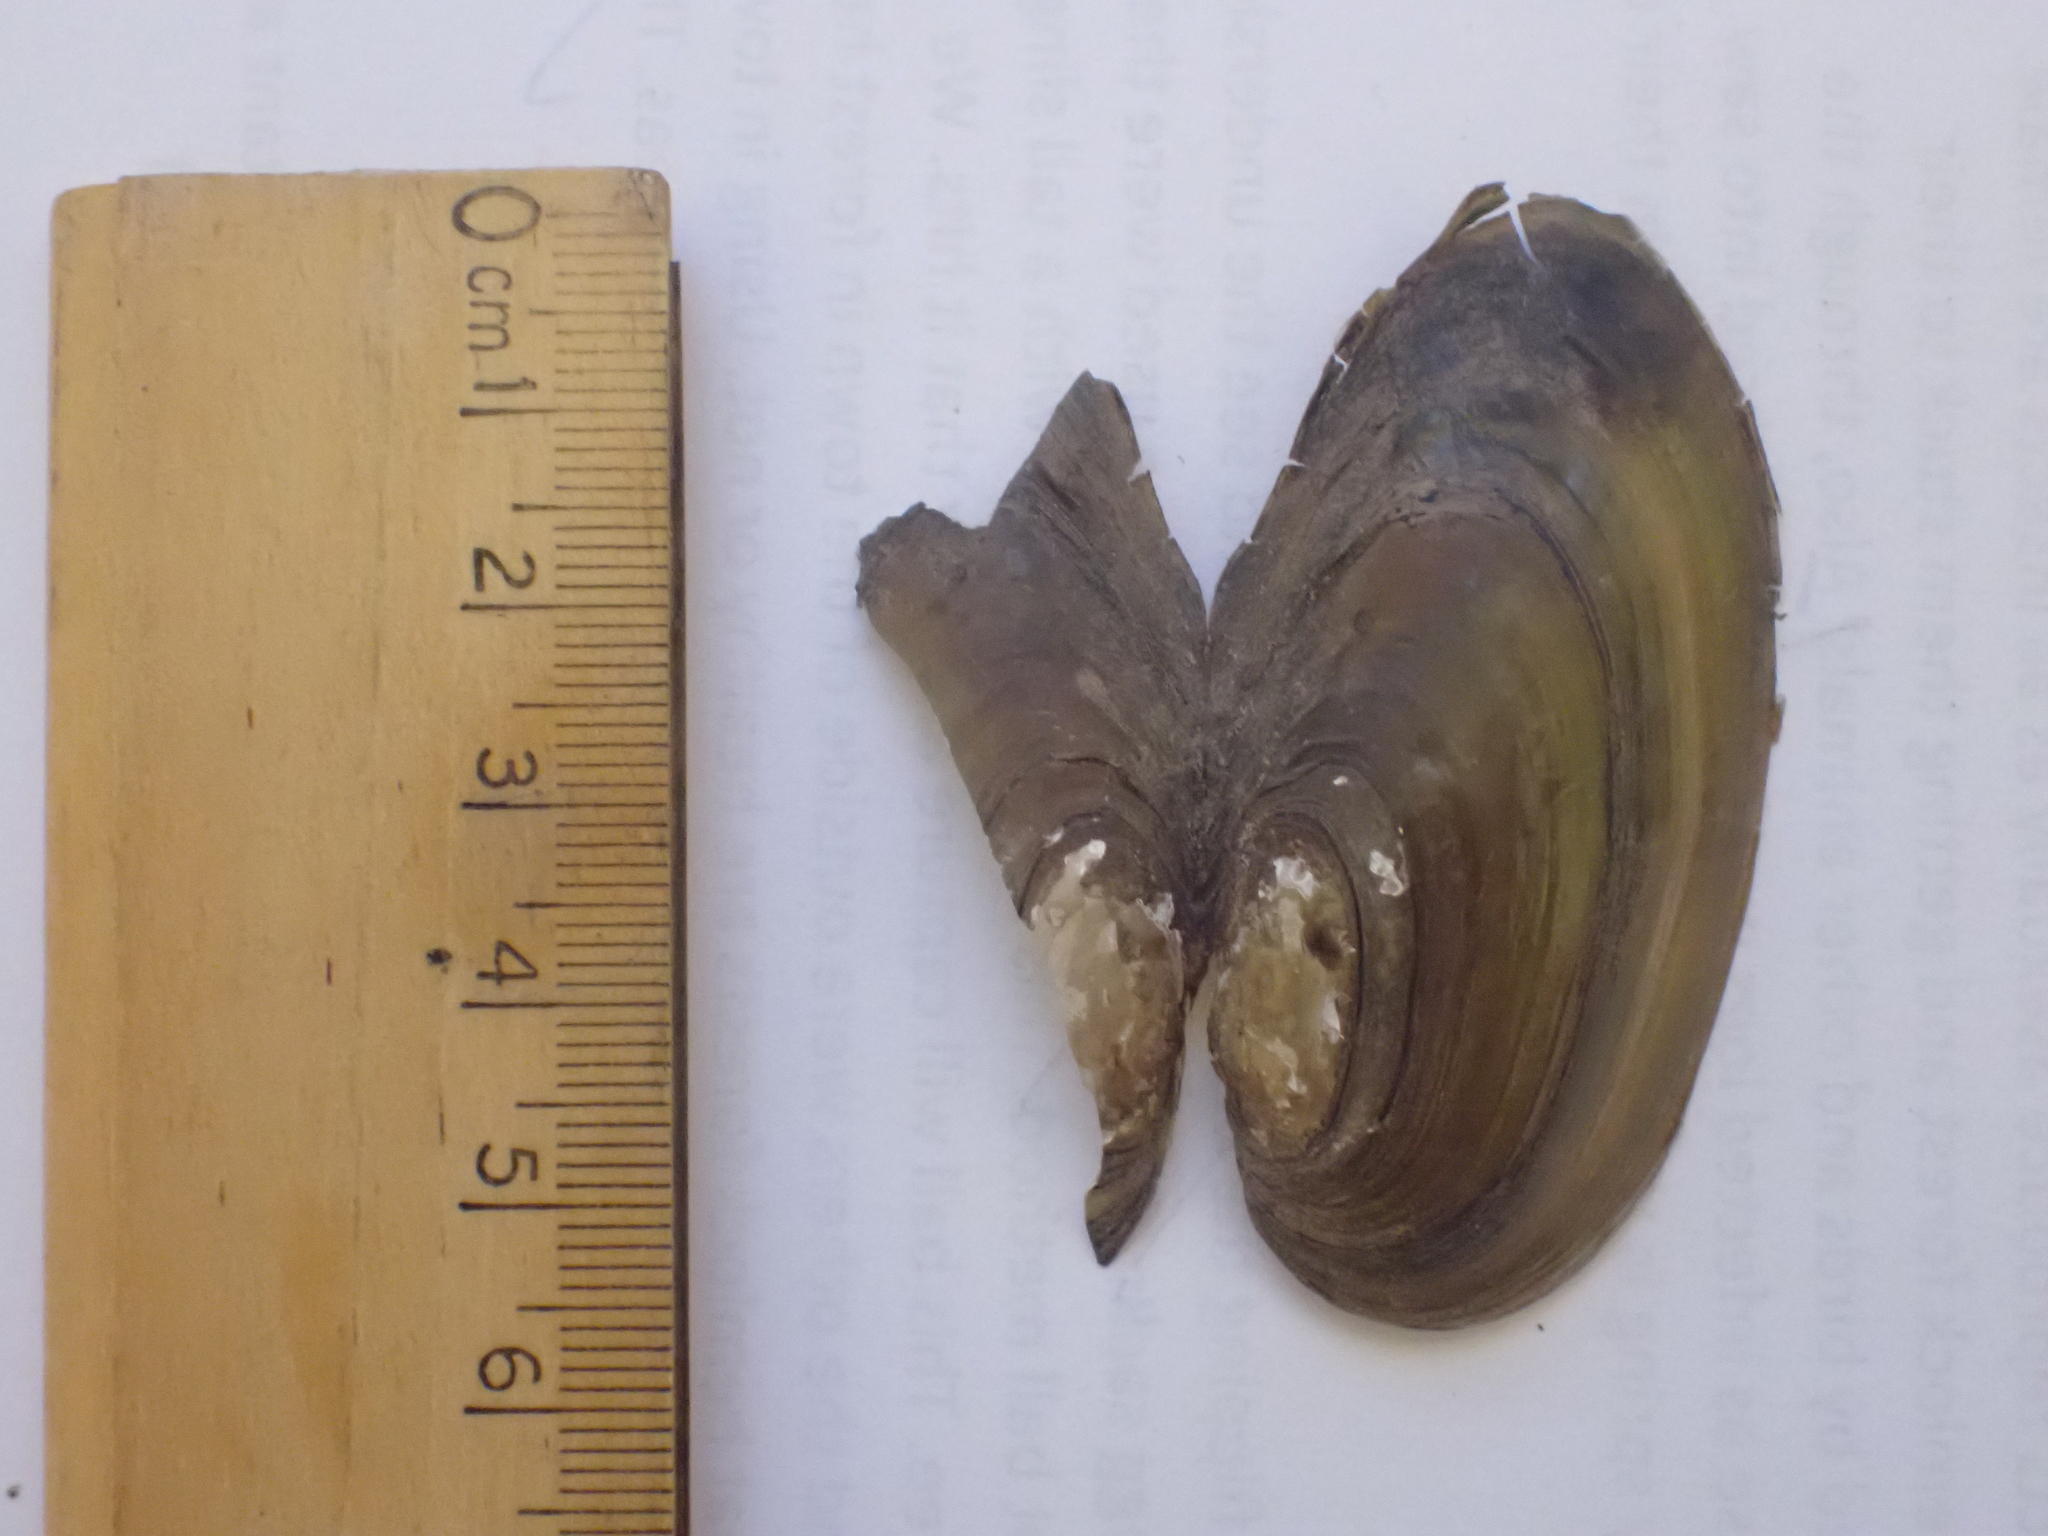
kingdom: Animalia
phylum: Mollusca
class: Bivalvia
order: Unionida
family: Unionidae
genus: Pyganodon
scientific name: Pyganodon cataracta
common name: Eastern floater
